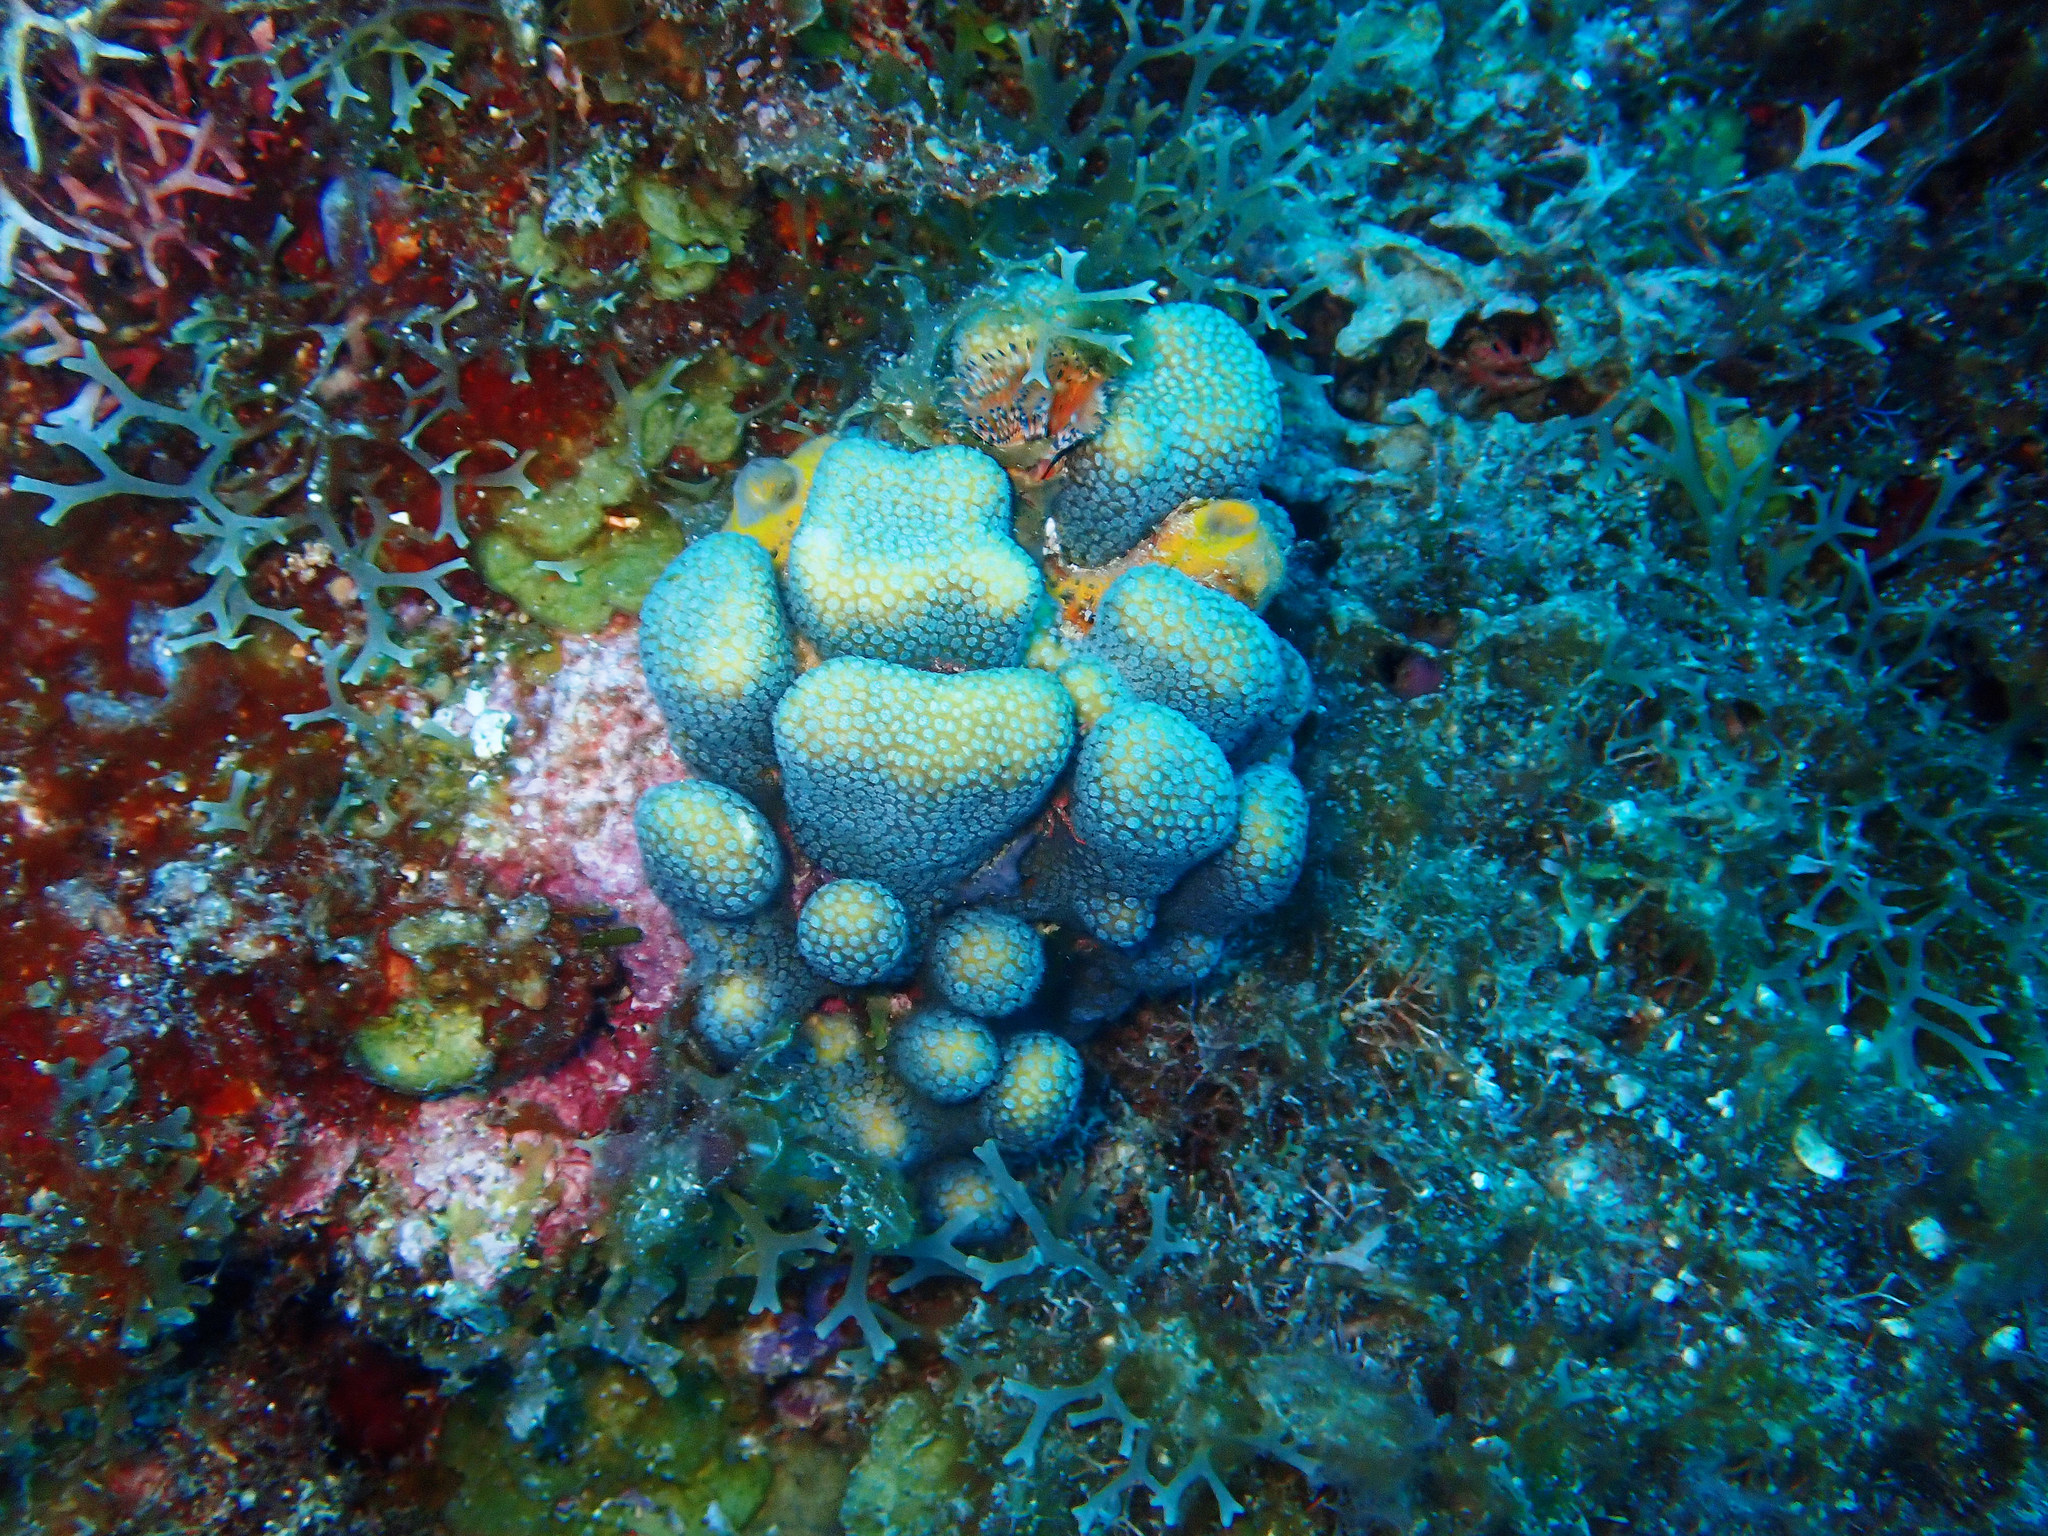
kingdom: Animalia
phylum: Cnidaria
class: Anthozoa
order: Scleractinia
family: Pocilloporidae
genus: Madracis
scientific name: Madracis decactis
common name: Ten-ray star coral
